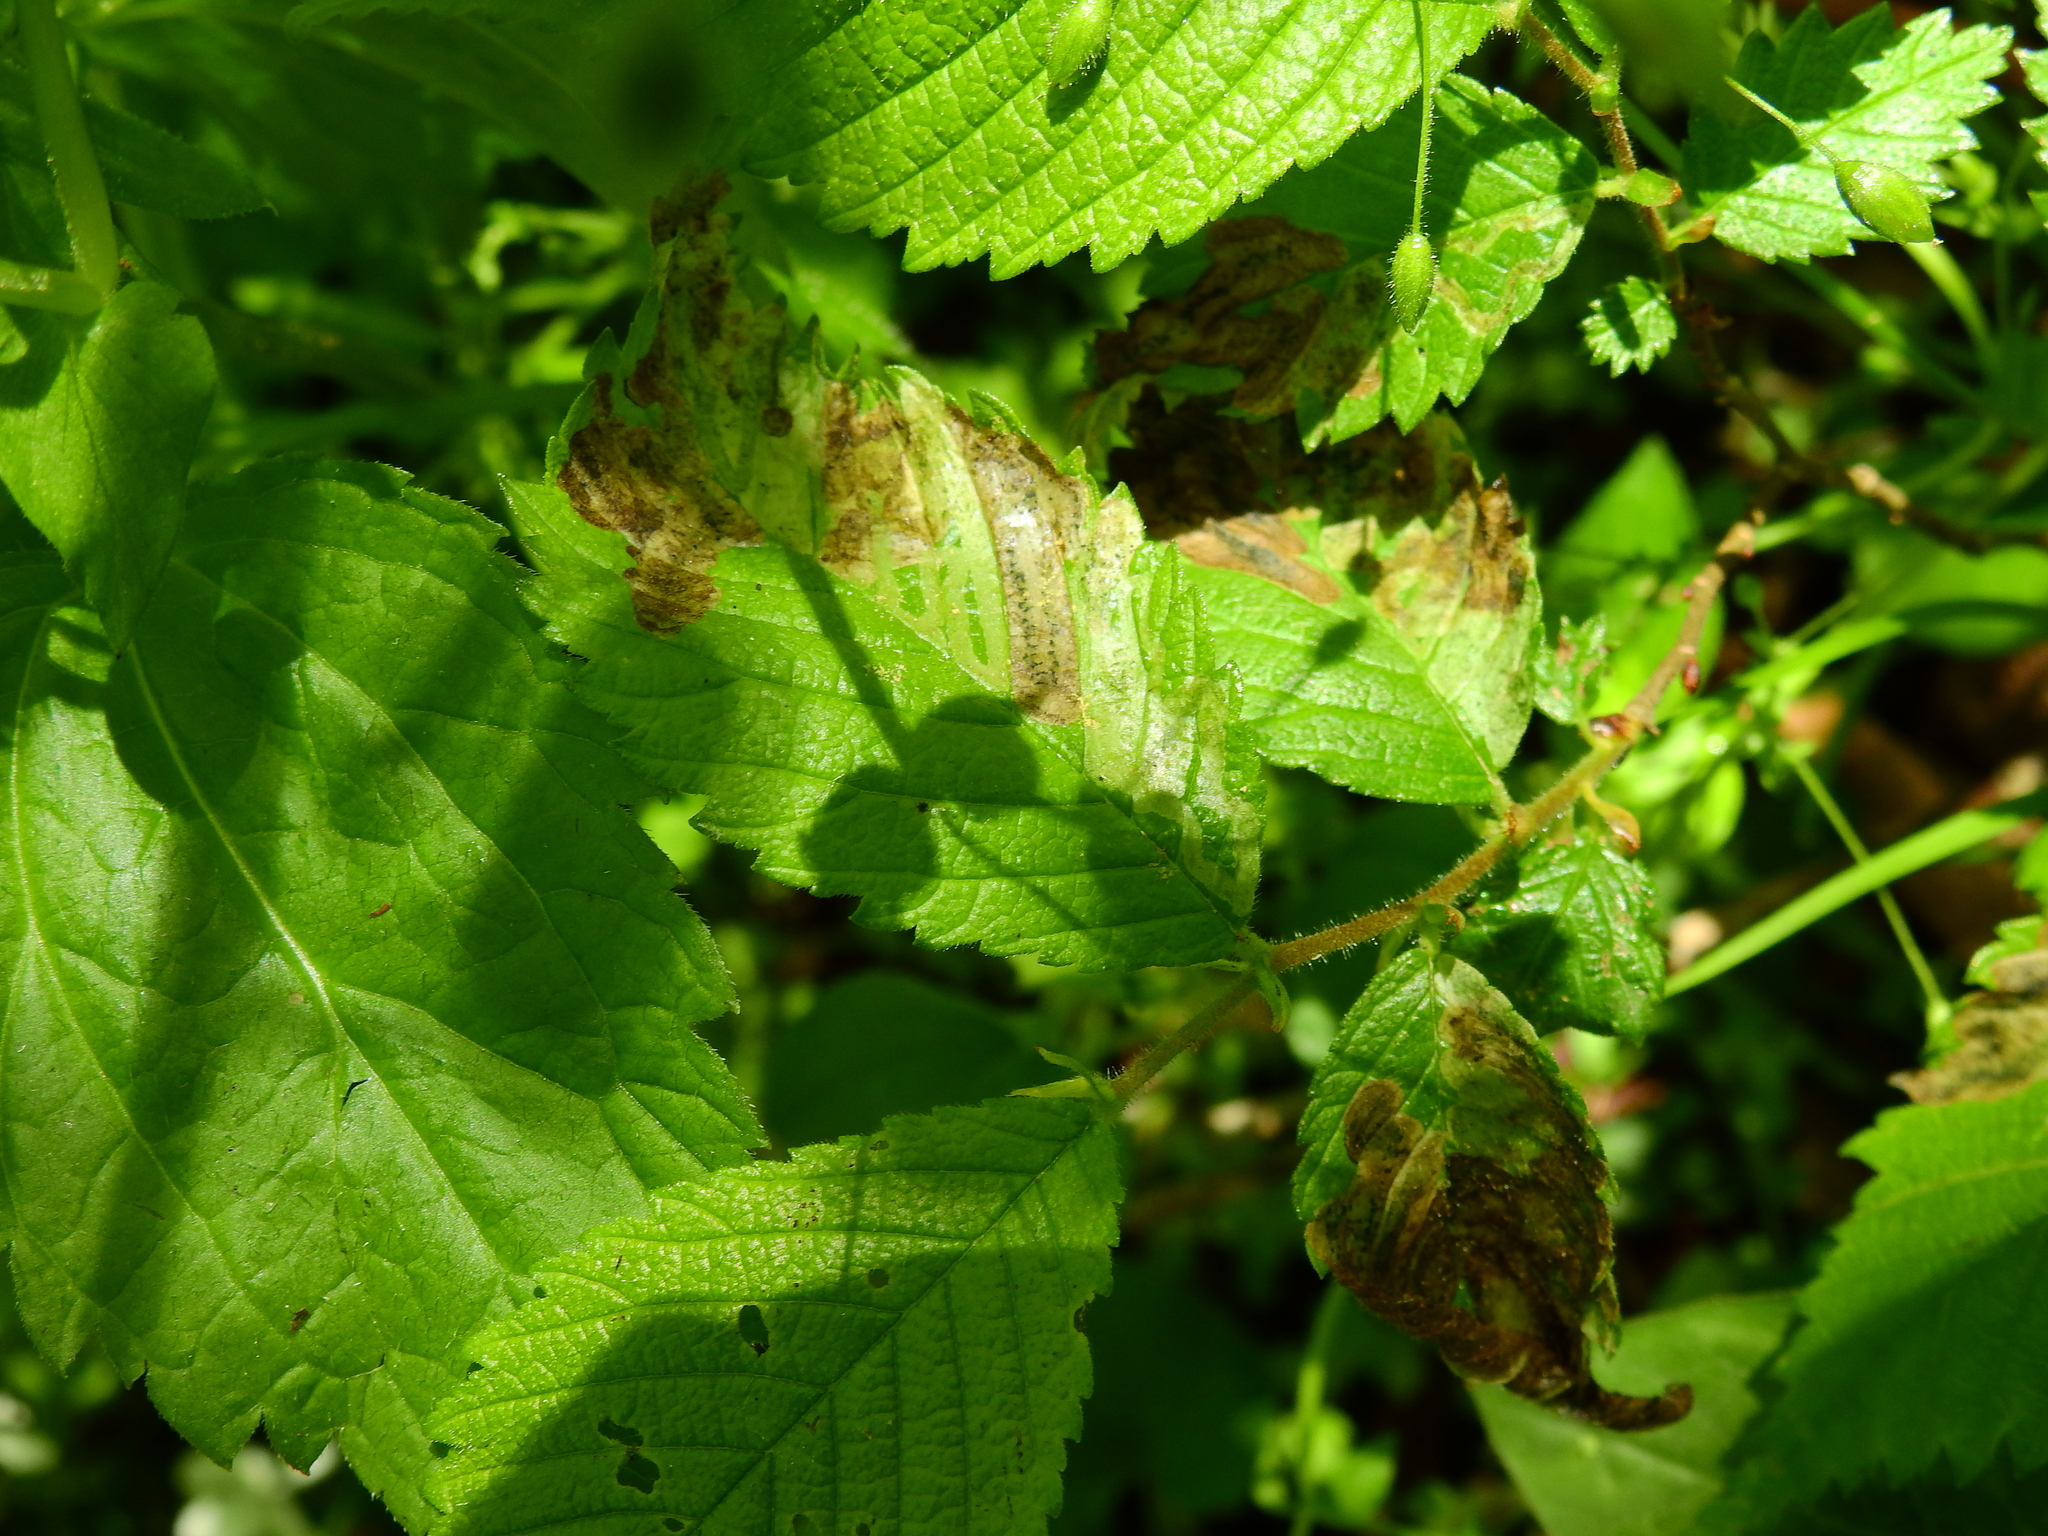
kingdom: Animalia
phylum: Arthropoda
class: Insecta
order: Diptera
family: Agromyzidae
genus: Agromyza
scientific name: Agromyza aristata
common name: Elm agromyzid leafminer
